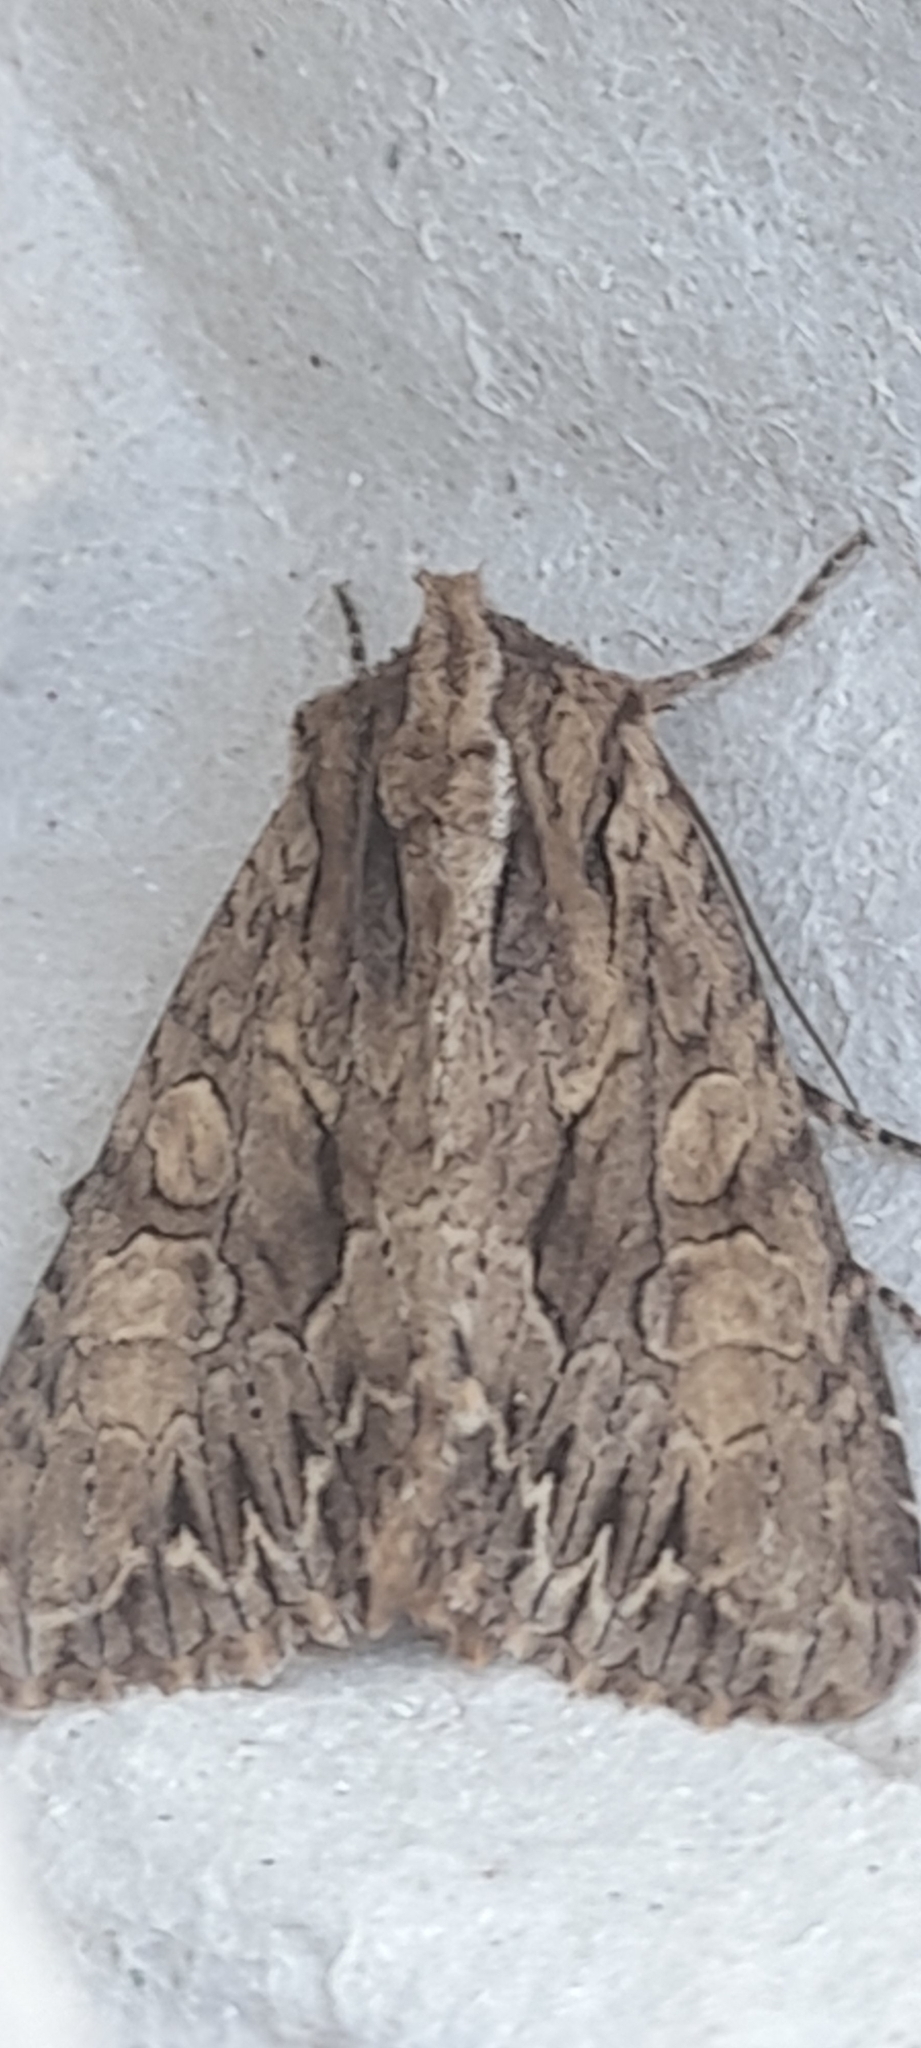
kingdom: Animalia
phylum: Arthropoda
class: Insecta
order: Lepidoptera
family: Noctuidae
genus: Apamea
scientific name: Apamea monoglypha
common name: Dark arches
